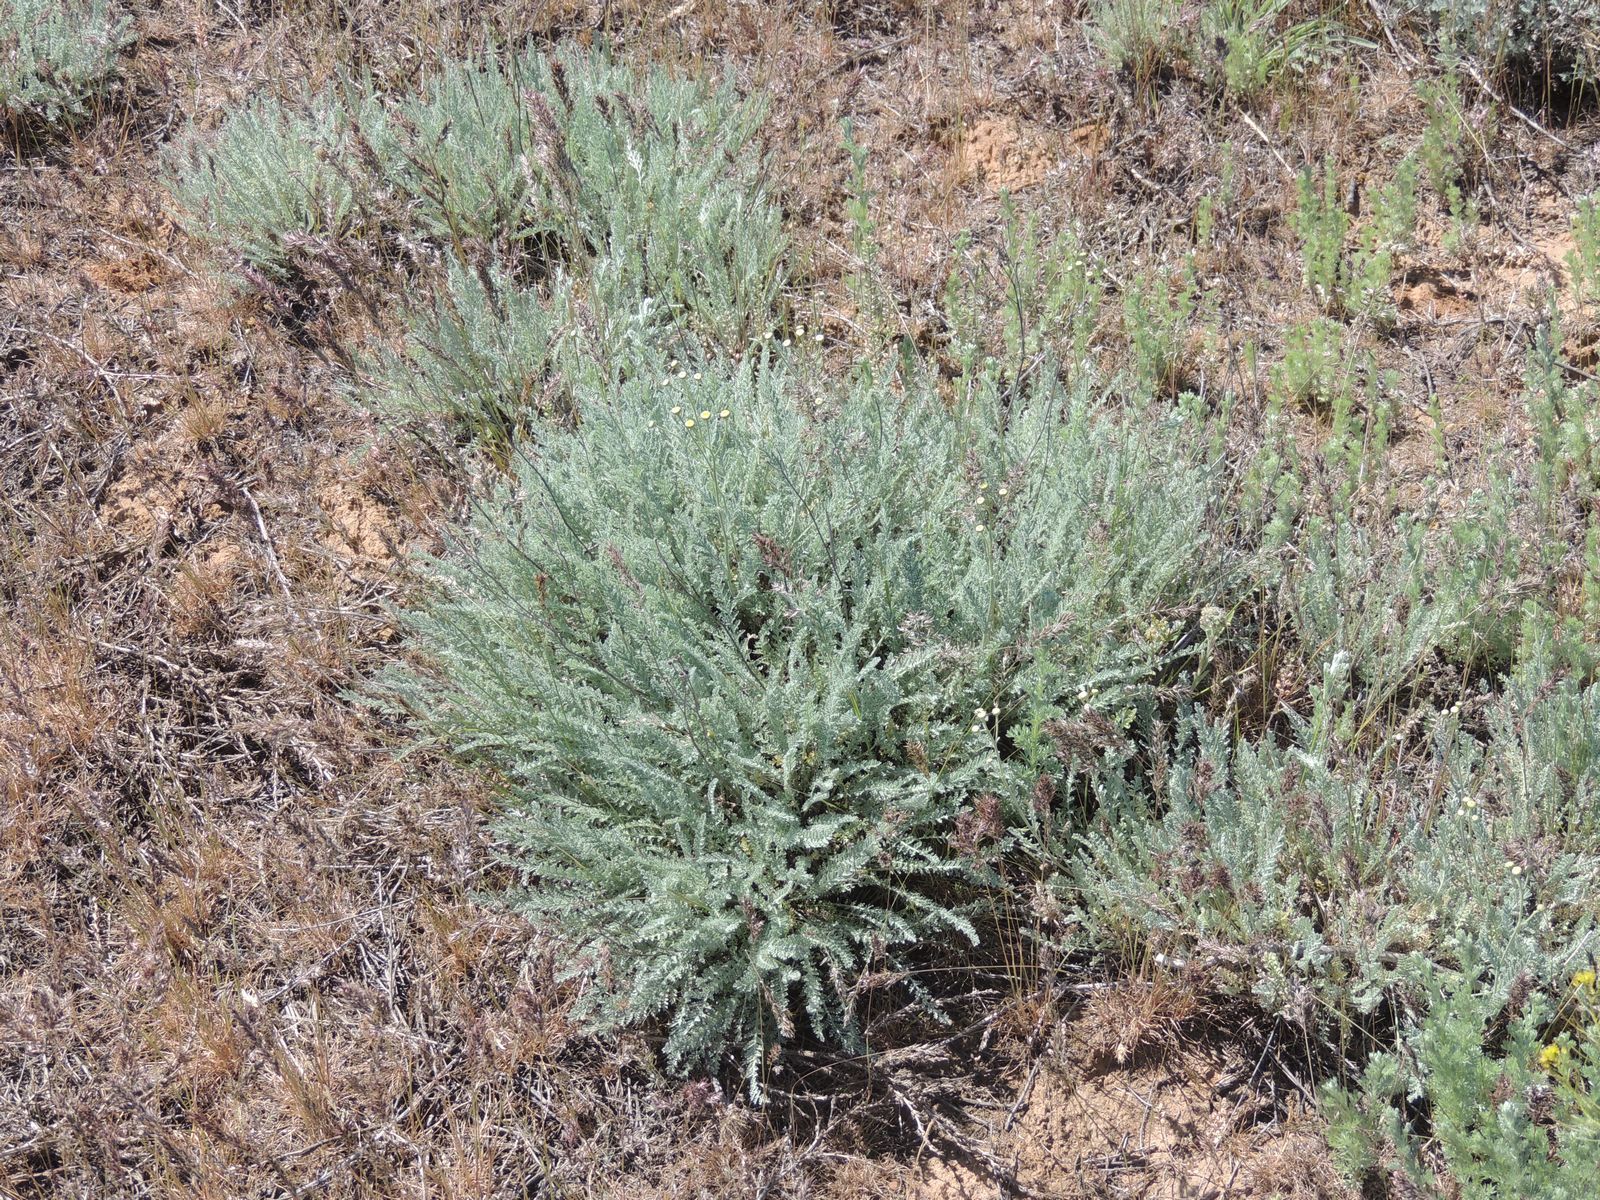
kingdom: Plantae
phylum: Tracheophyta
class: Magnoliopsida
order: Asterales
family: Asteraceae
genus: Tanacetum
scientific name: Tanacetum achilleifolium
